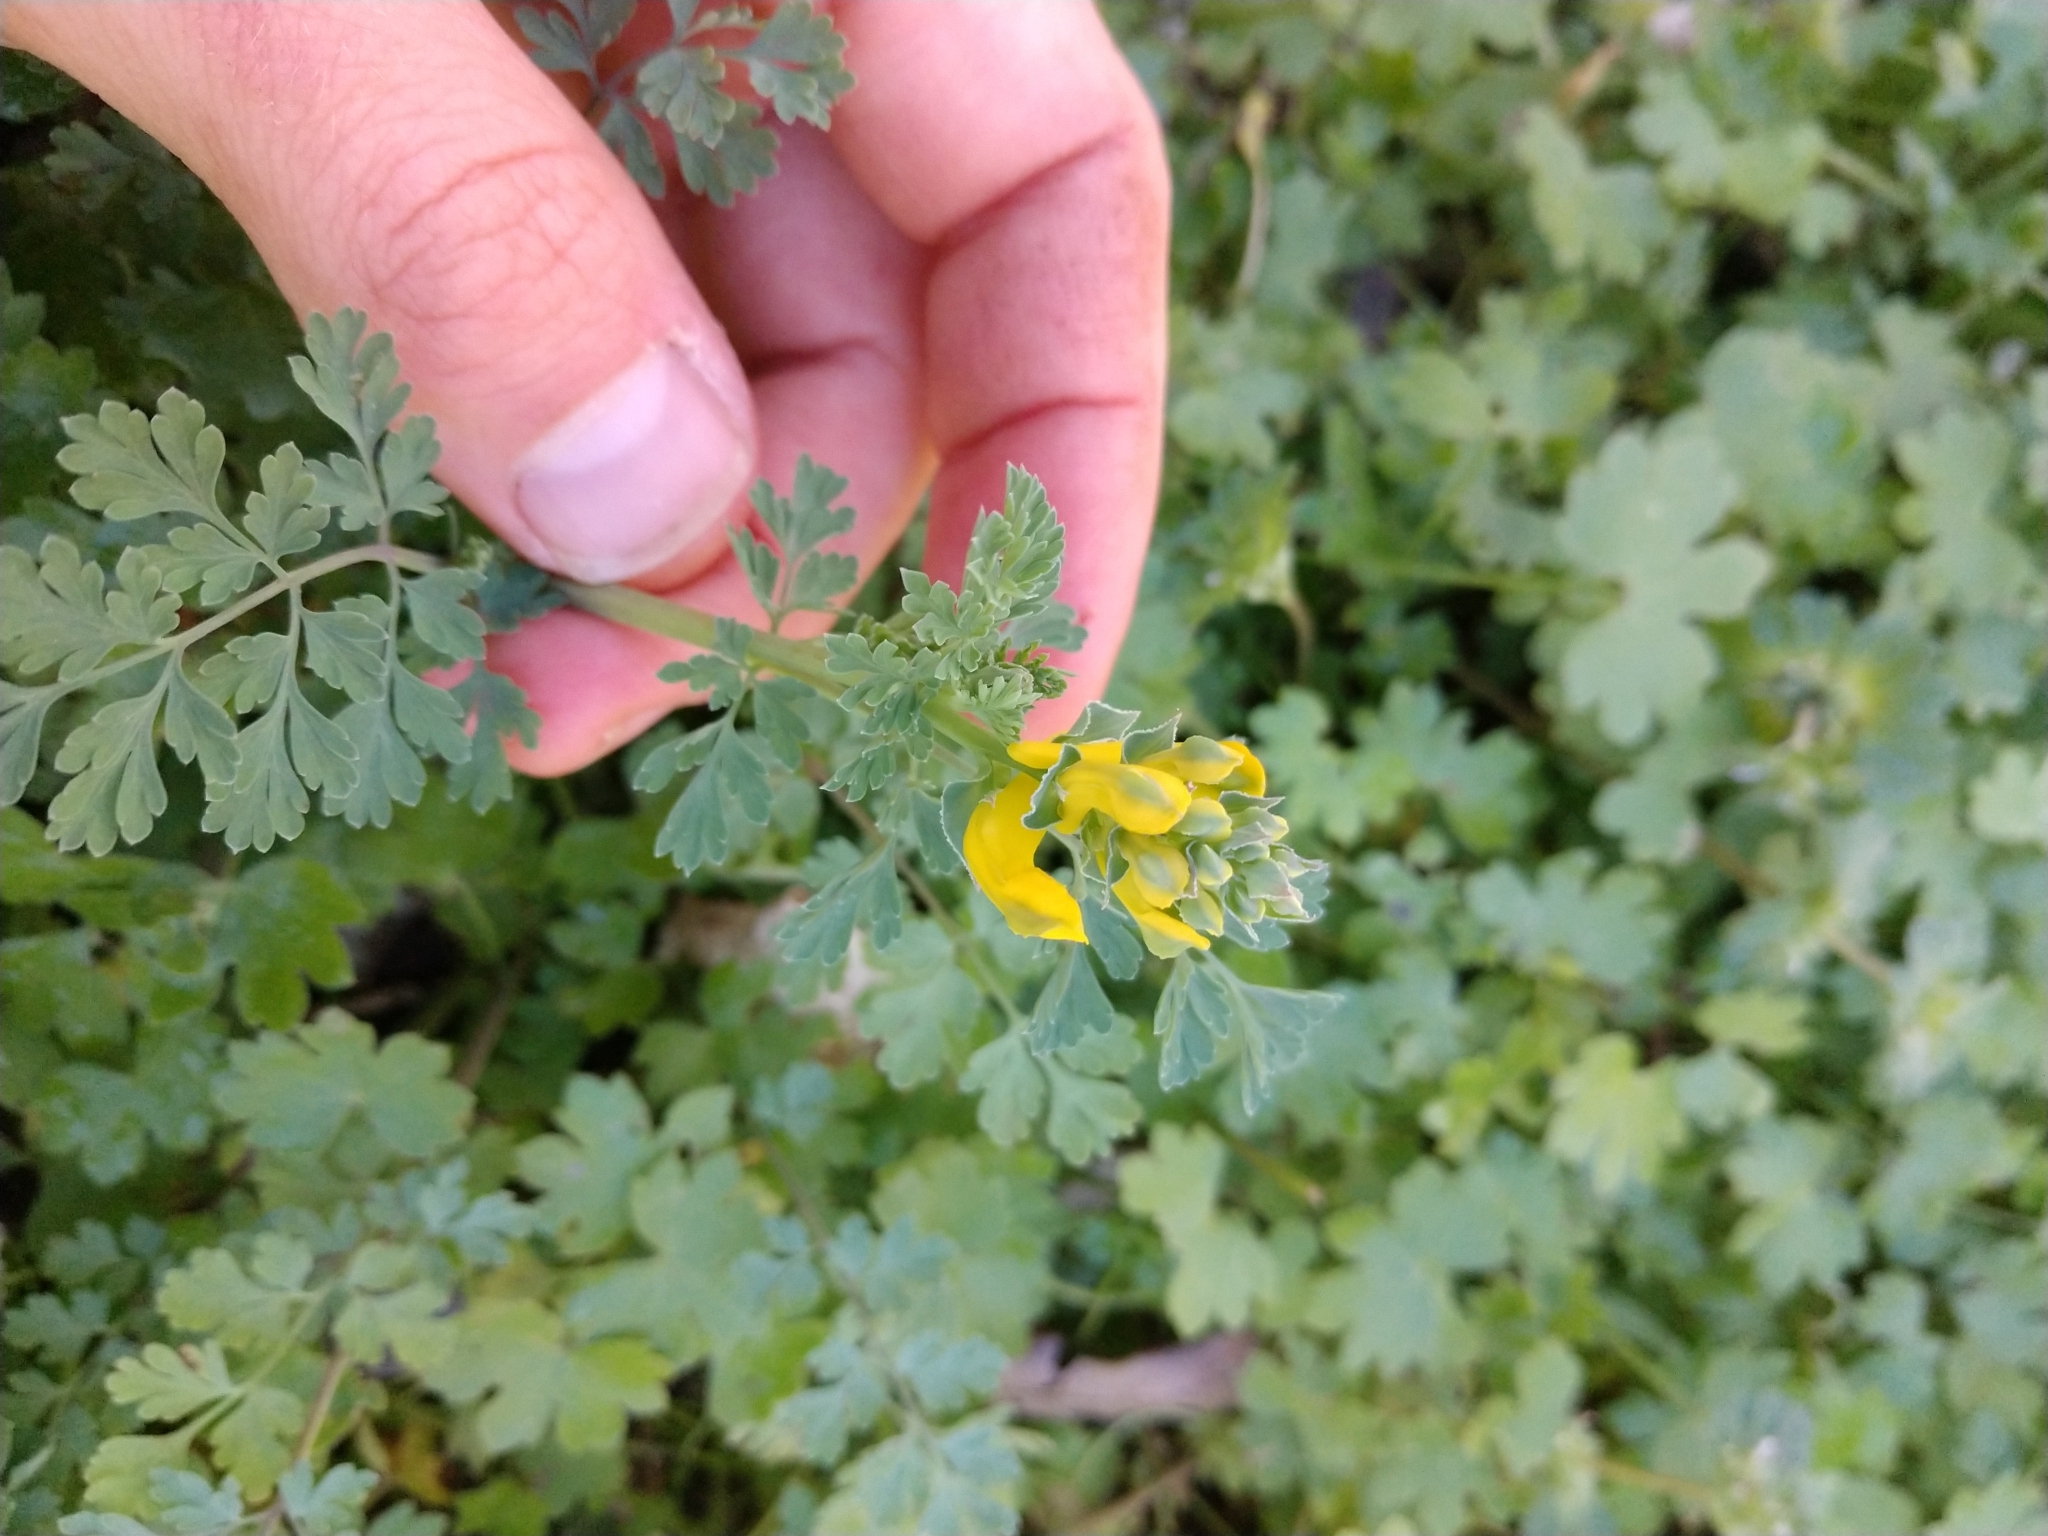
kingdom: Plantae
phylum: Tracheophyta
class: Magnoliopsida
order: Ranunculales
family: Papaveraceae
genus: Corydalis
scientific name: Corydalis aurea
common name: Golden corydalis
